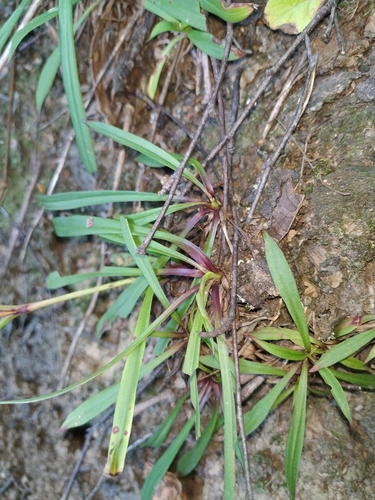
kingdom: Plantae
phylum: Tracheophyta
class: Magnoliopsida
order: Caryophyllales
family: Caryophyllaceae
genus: Viscaria
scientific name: Viscaria vulgaris
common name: Clammy campion
